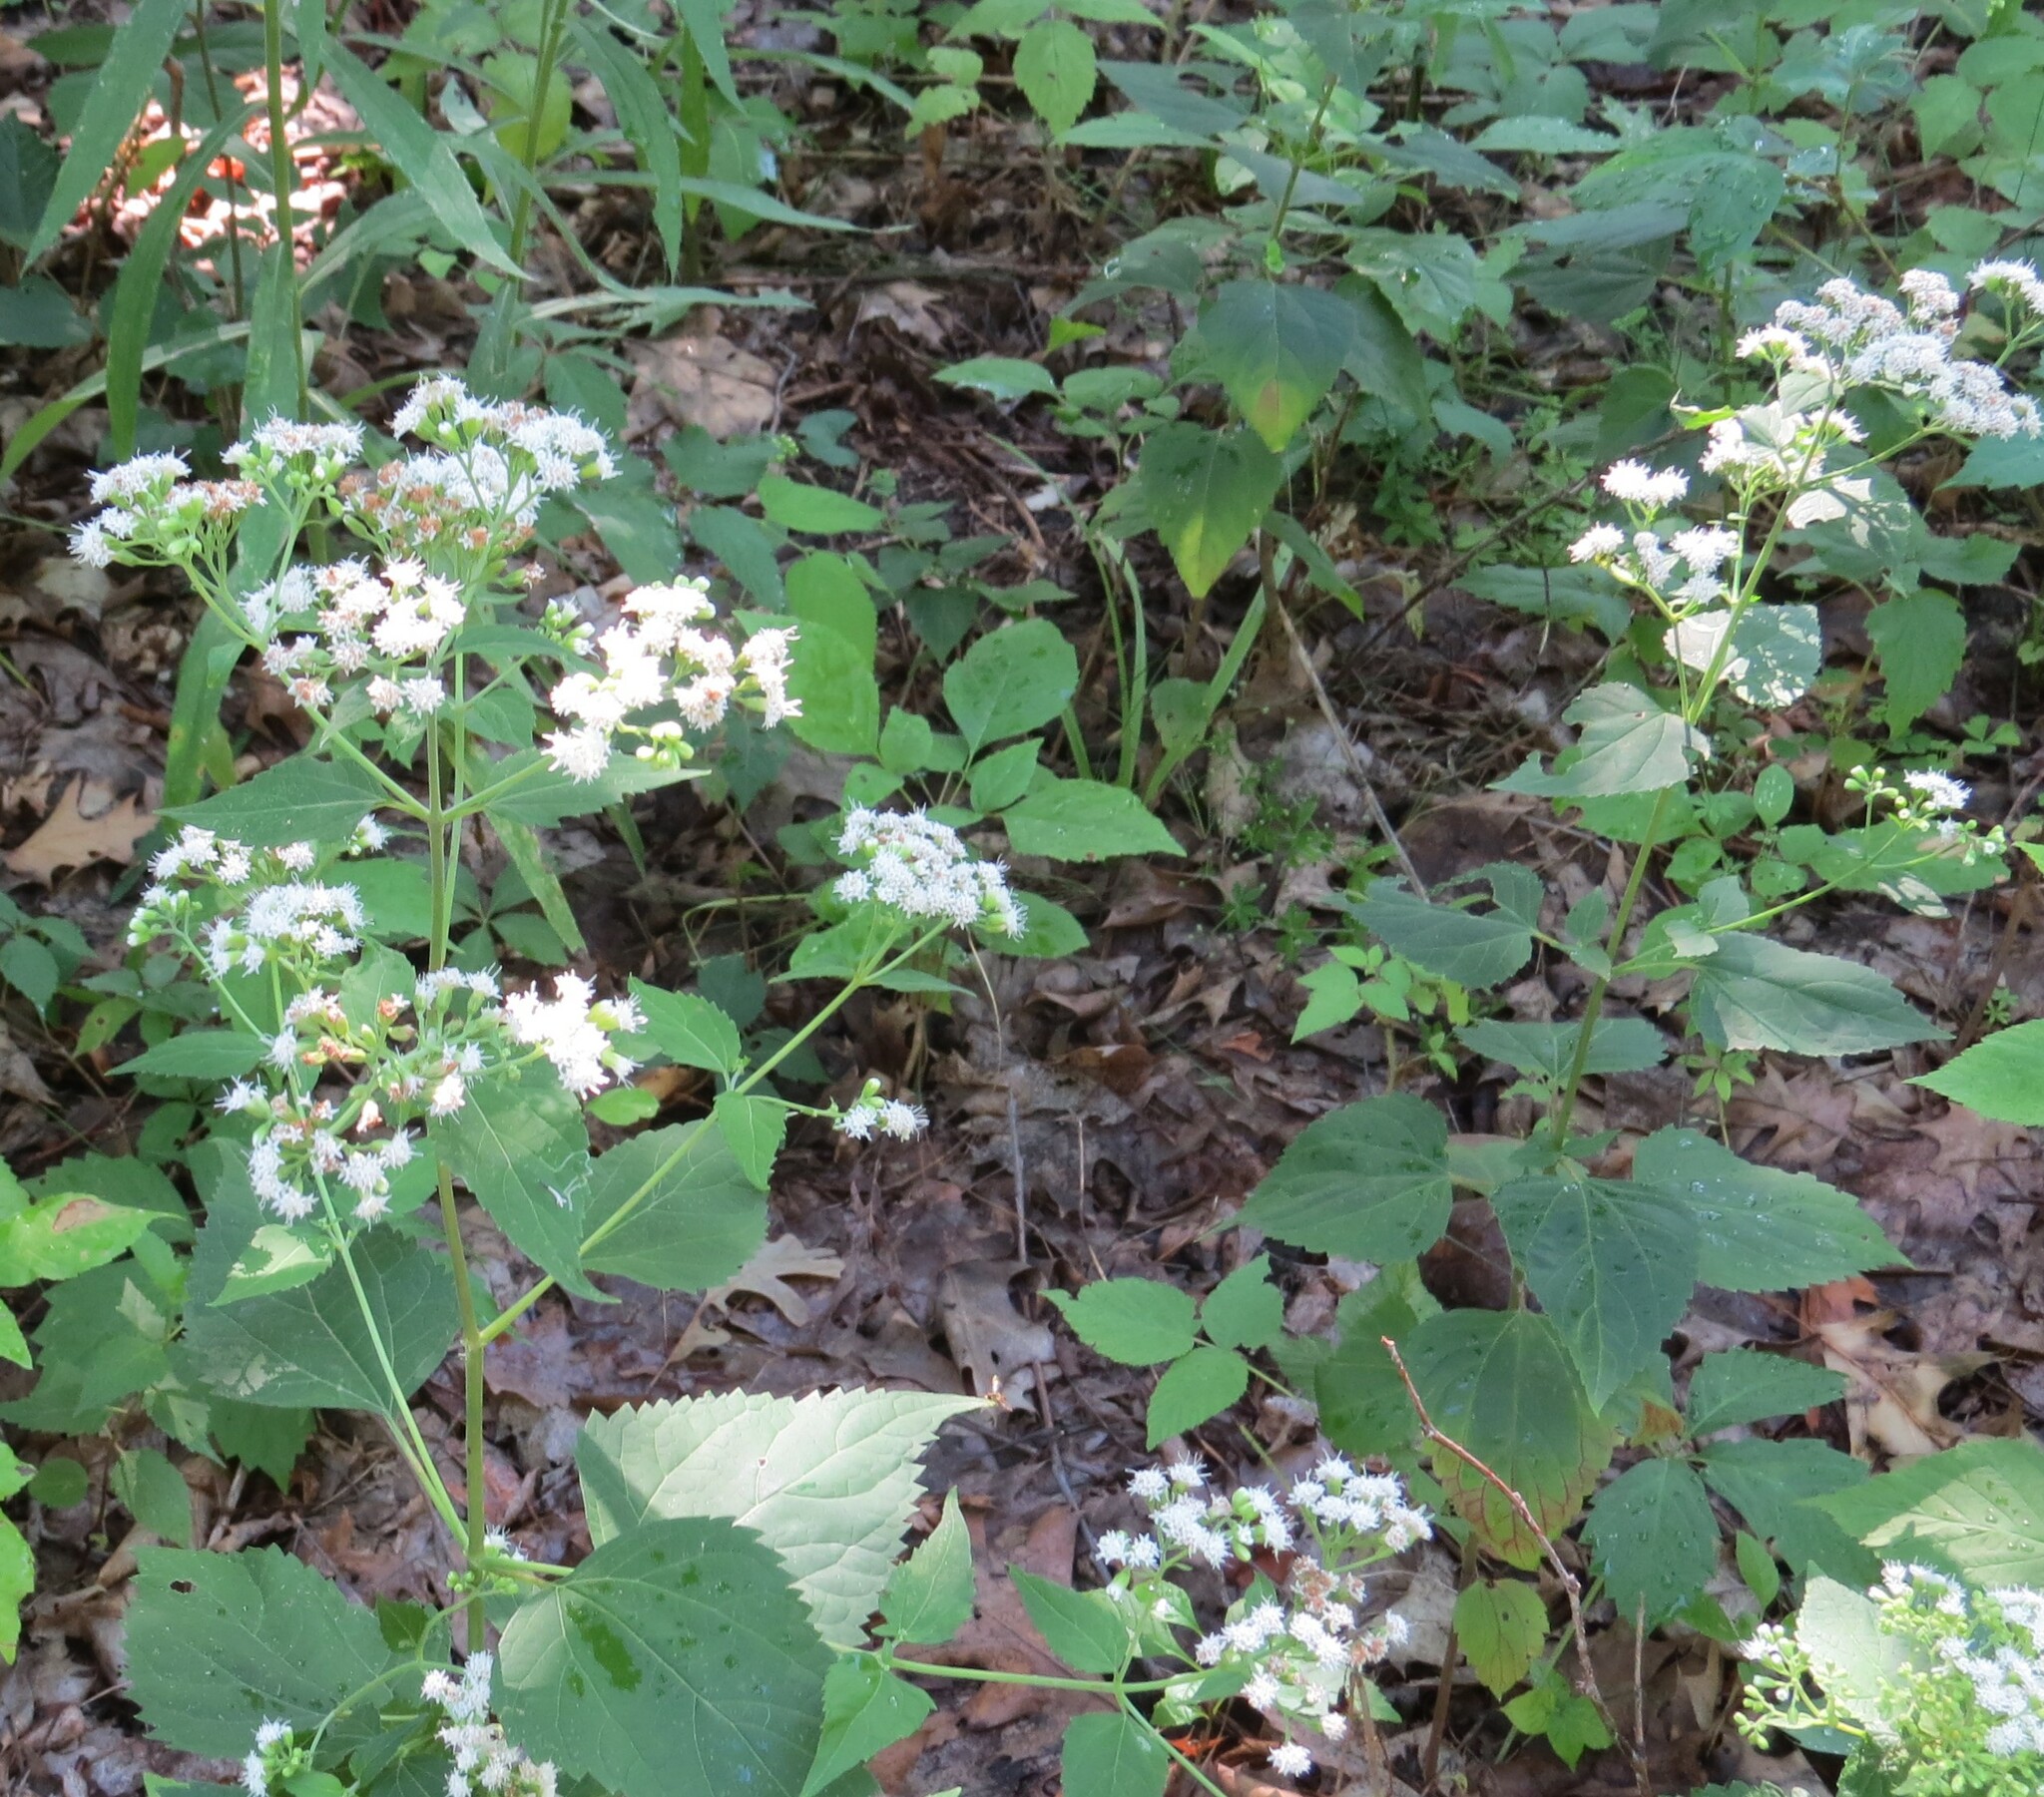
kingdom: Plantae
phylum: Tracheophyta
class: Magnoliopsida
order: Asterales
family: Asteraceae
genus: Ageratina
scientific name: Ageratina altissima
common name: White snakeroot
